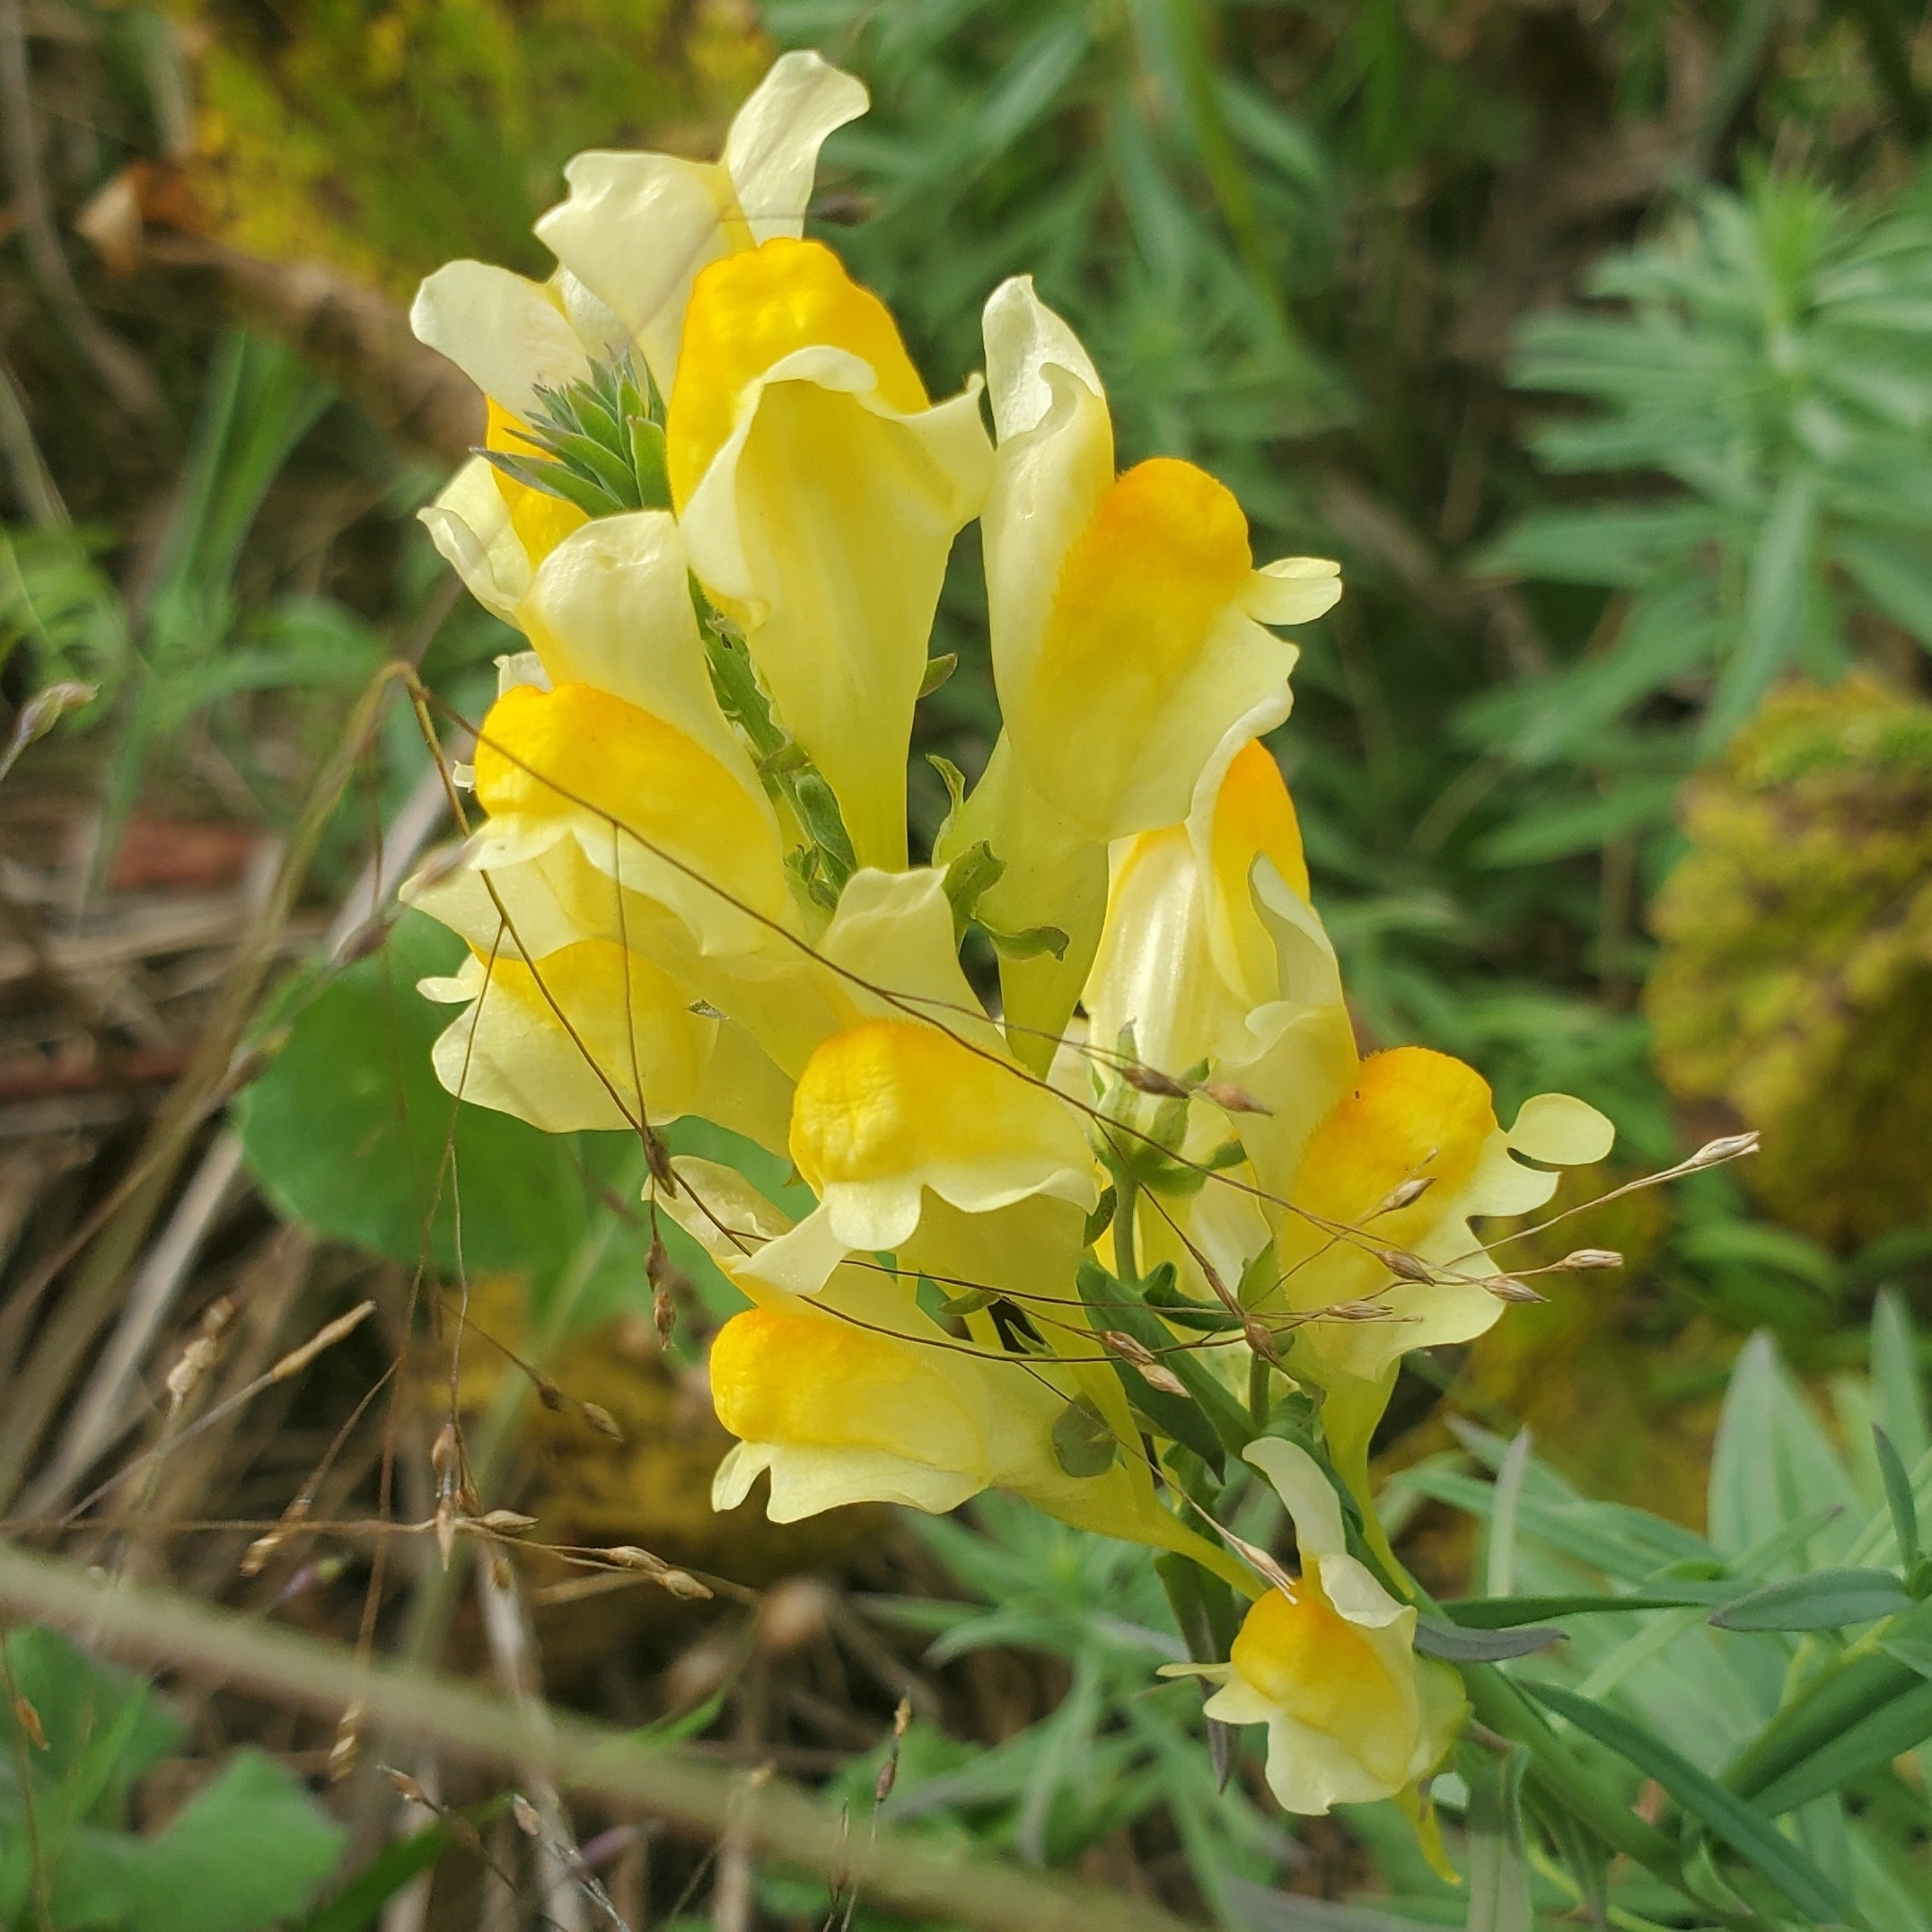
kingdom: Plantae
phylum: Tracheophyta
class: Magnoliopsida
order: Lamiales
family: Plantaginaceae
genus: Linaria
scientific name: Linaria vulgaris
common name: Butter and eggs
